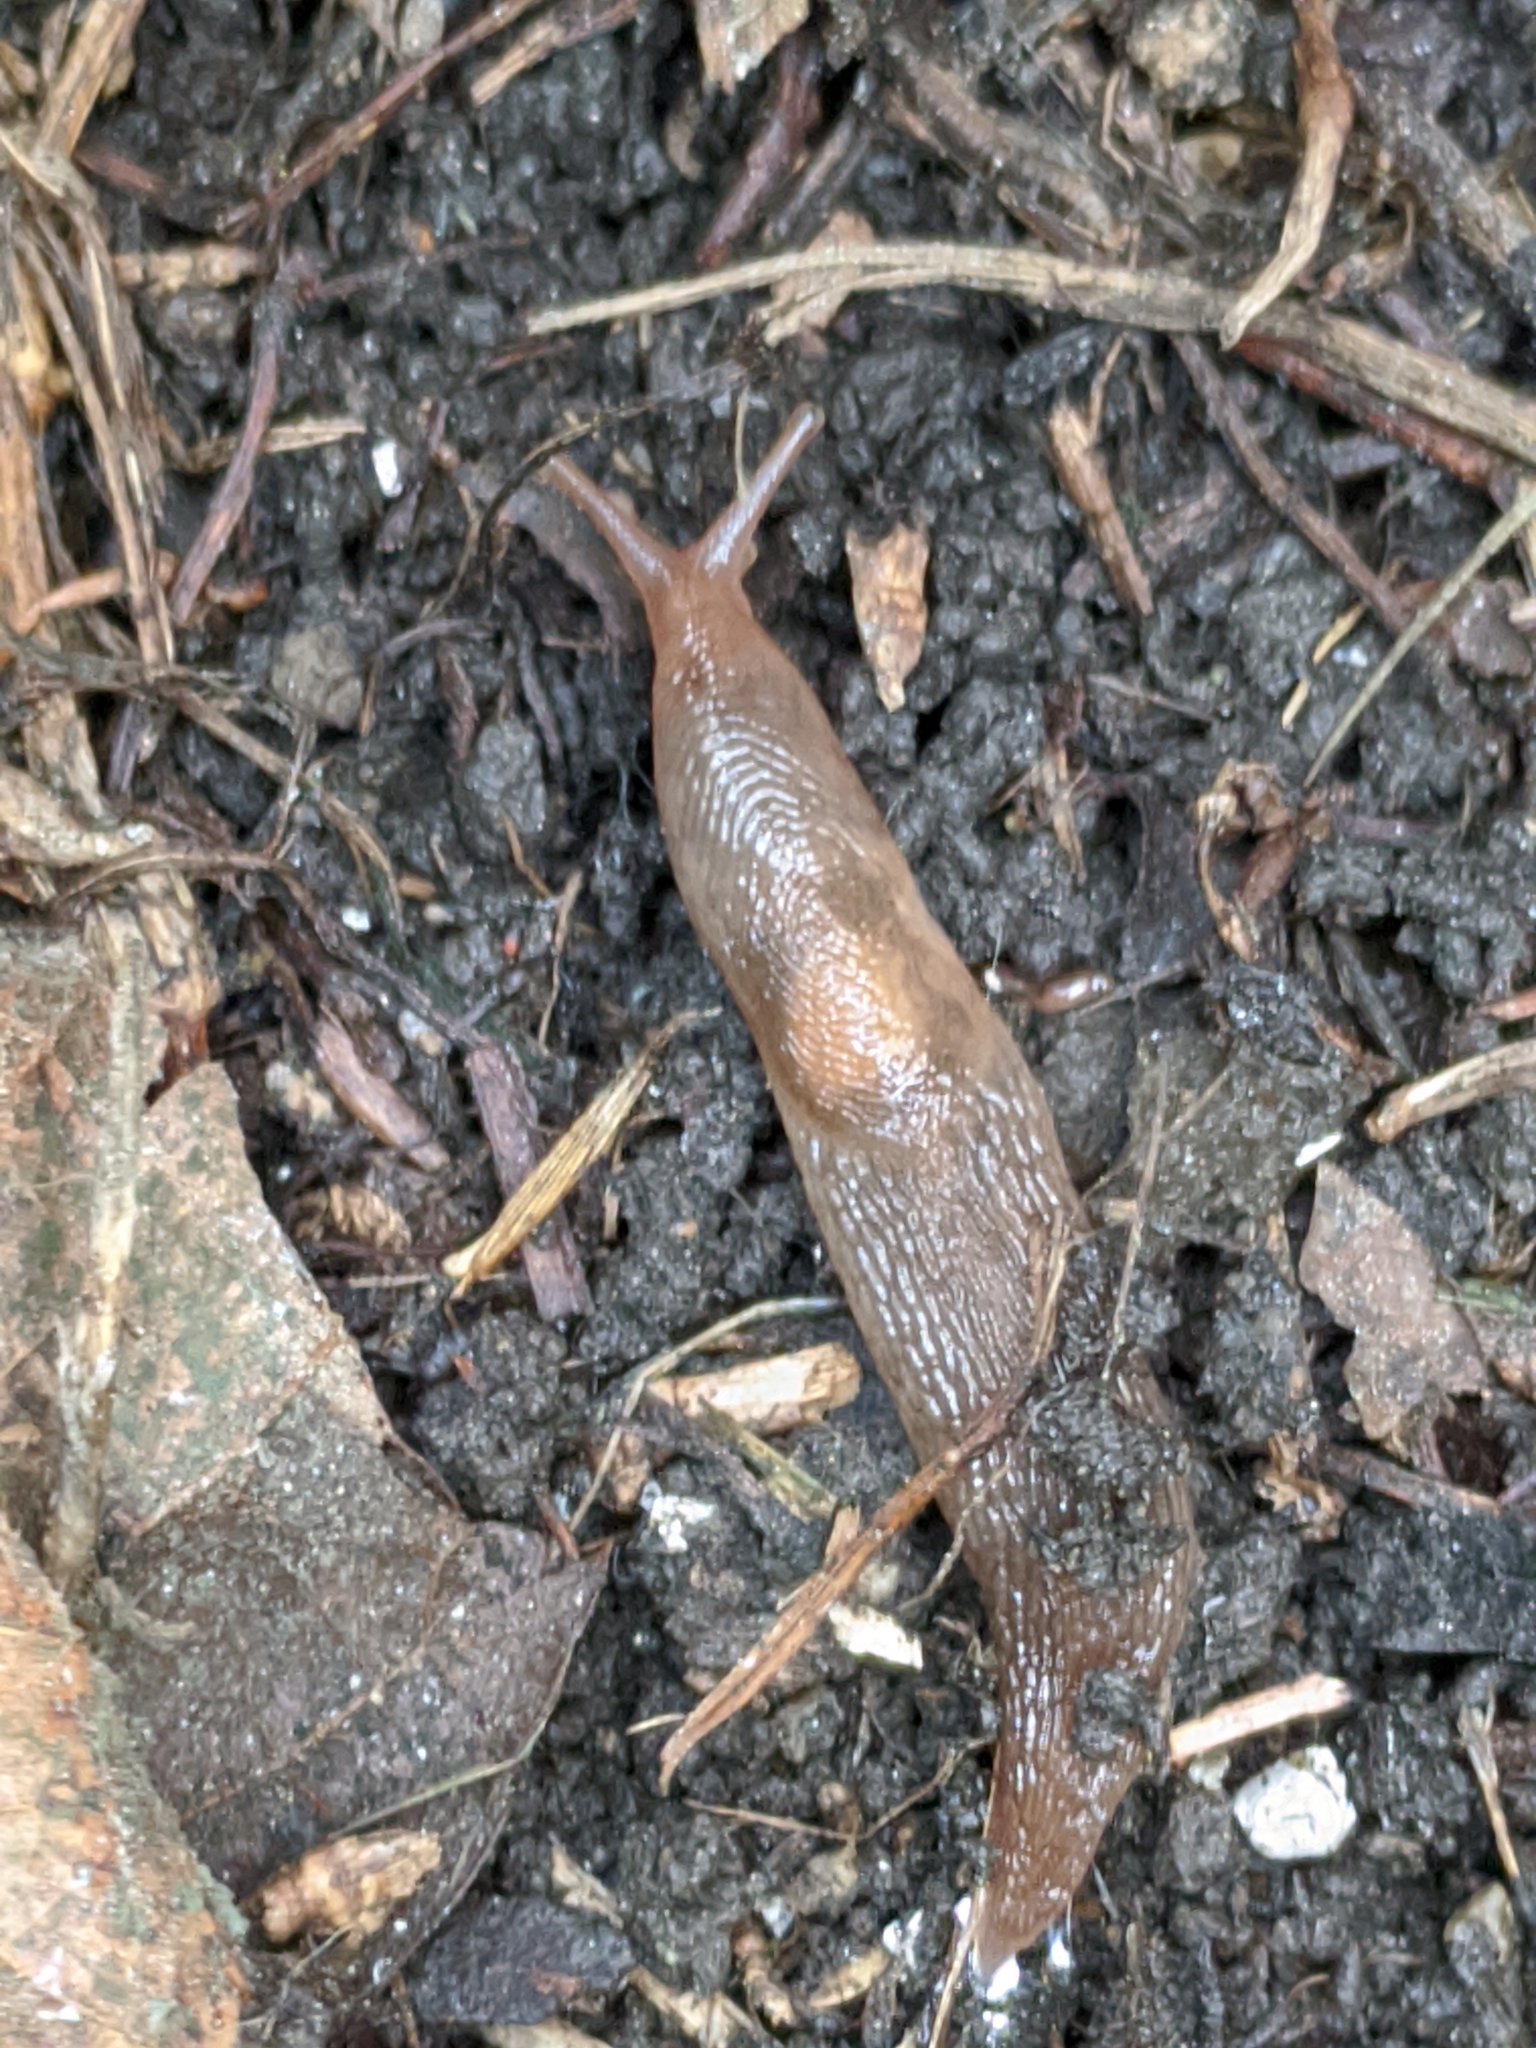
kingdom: Animalia
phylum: Mollusca
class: Gastropoda
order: Stylommatophora
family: Limacidae
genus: Ambigolimax
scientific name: Ambigolimax
